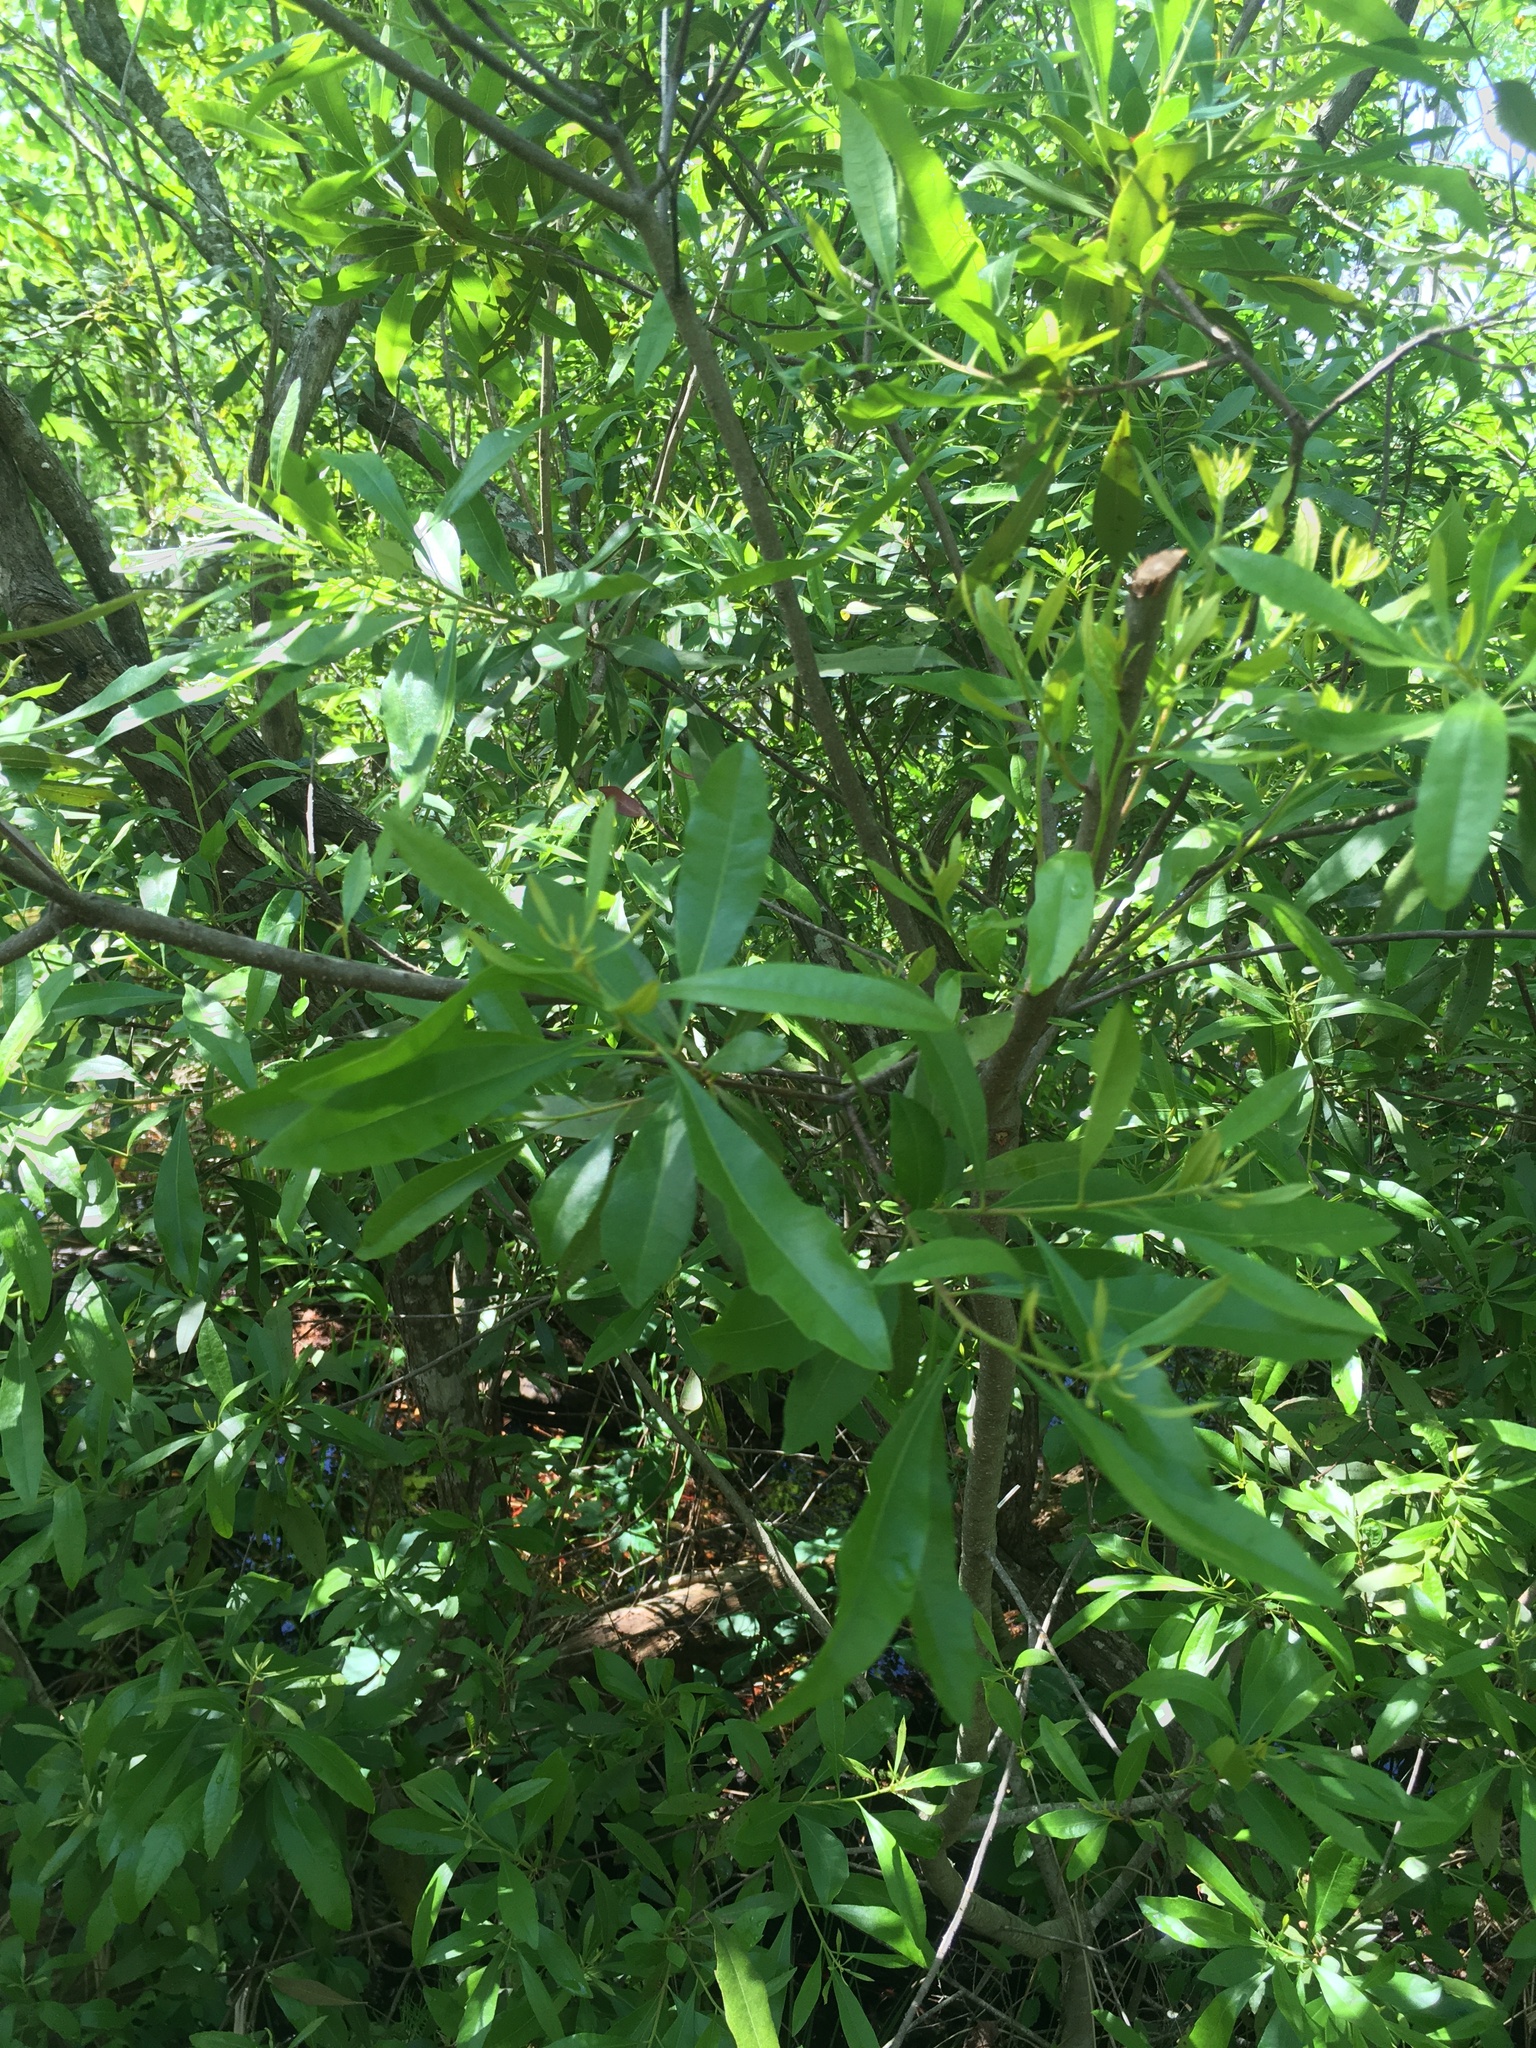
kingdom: Plantae
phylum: Tracheophyta
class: Magnoliopsida
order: Fagales
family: Myricaceae
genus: Morella
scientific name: Morella cerifera
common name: Wax myrtle
